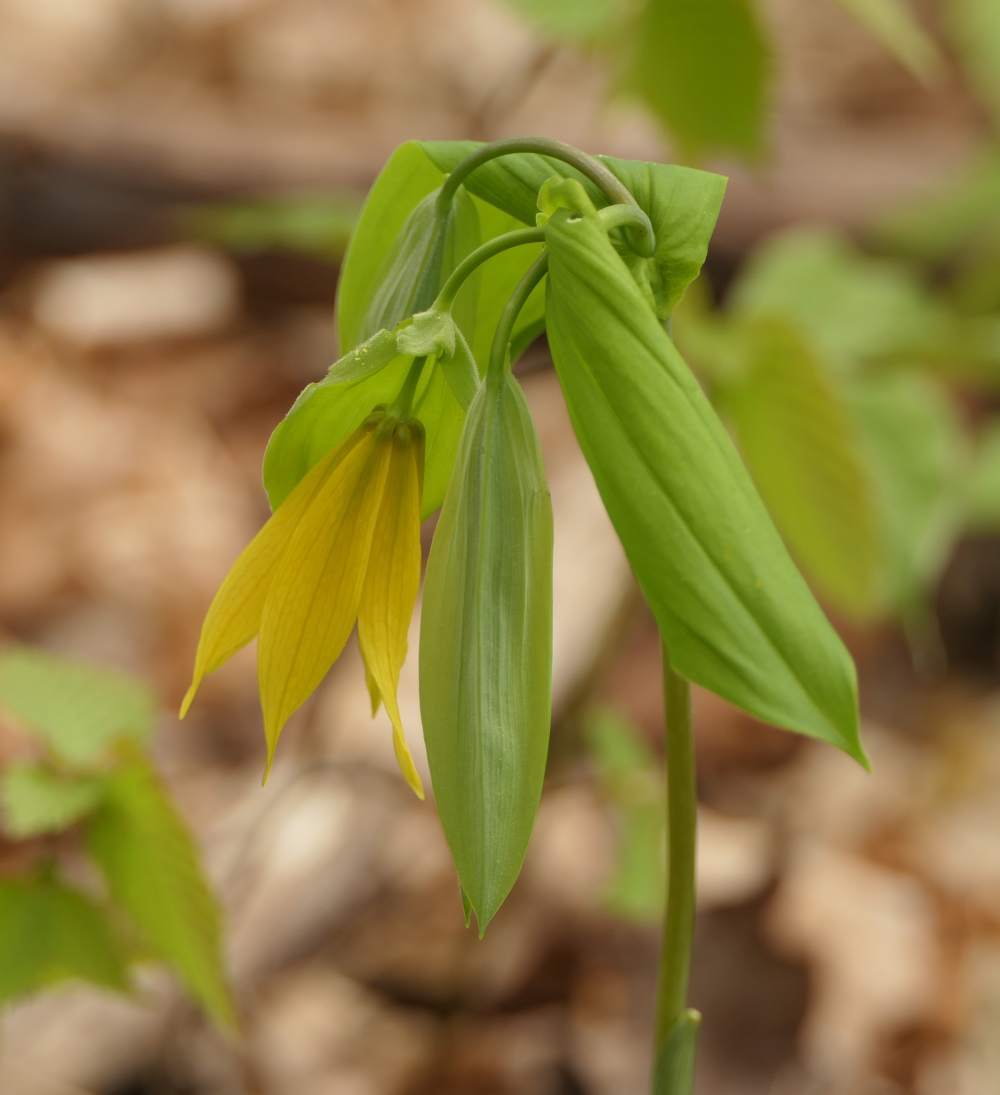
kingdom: Plantae
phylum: Tracheophyta
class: Liliopsida
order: Liliales
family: Colchicaceae
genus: Uvularia
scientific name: Uvularia grandiflora
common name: Bellwort
